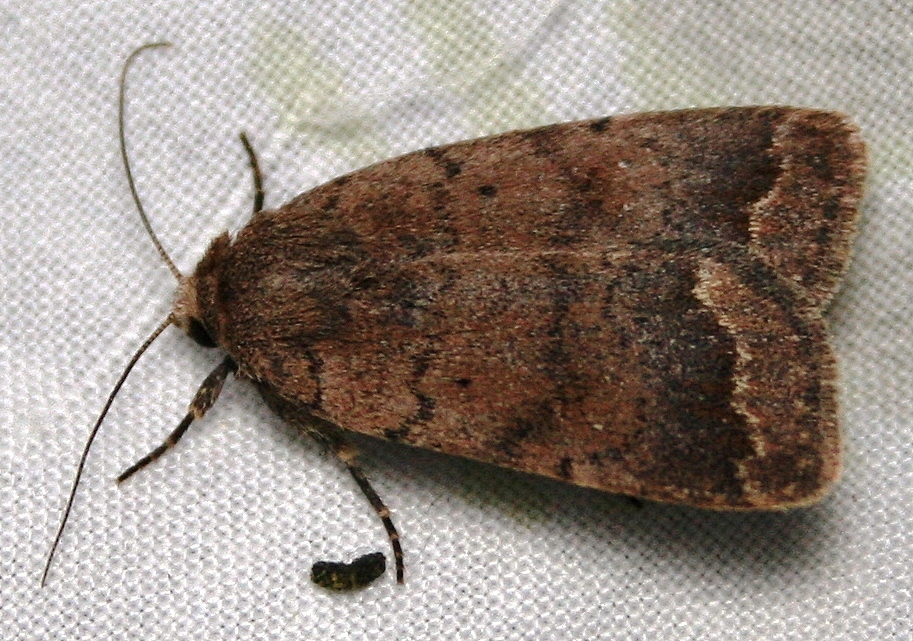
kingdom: Animalia
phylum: Arthropoda
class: Insecta
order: Lepidoptera
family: Noctuidae
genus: Athetis
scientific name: Athetis tarda
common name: Slowpoke moth
